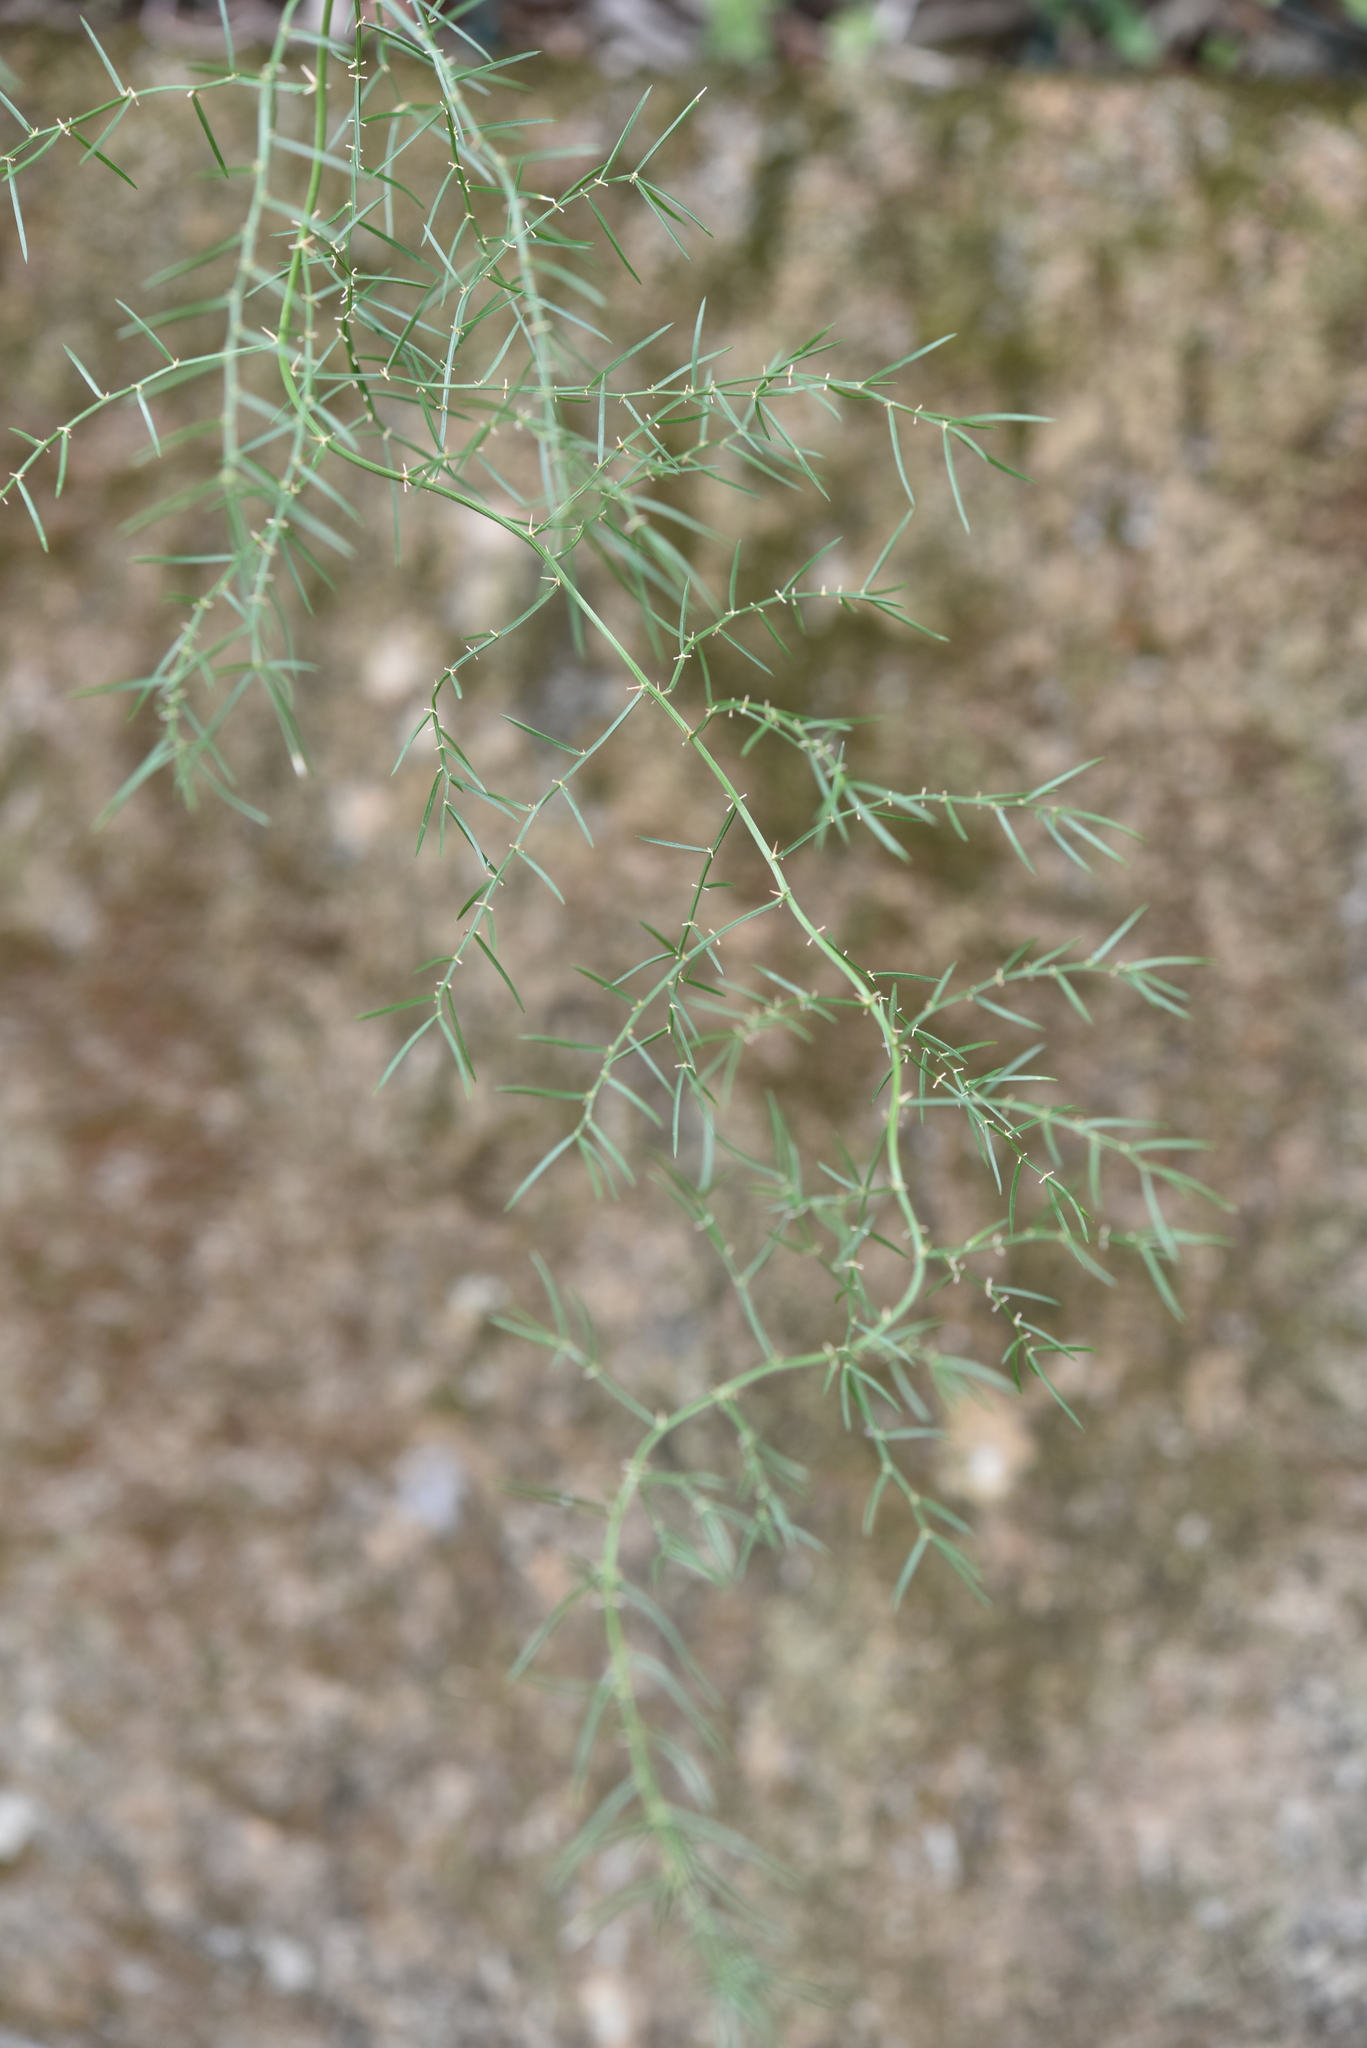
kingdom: Plantae
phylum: Tracheophyta
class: Liliopsida
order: Asparagales
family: Asparagaceae
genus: Asparagus
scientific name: Asparagus cochinchinensis
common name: Chinese asparagus
